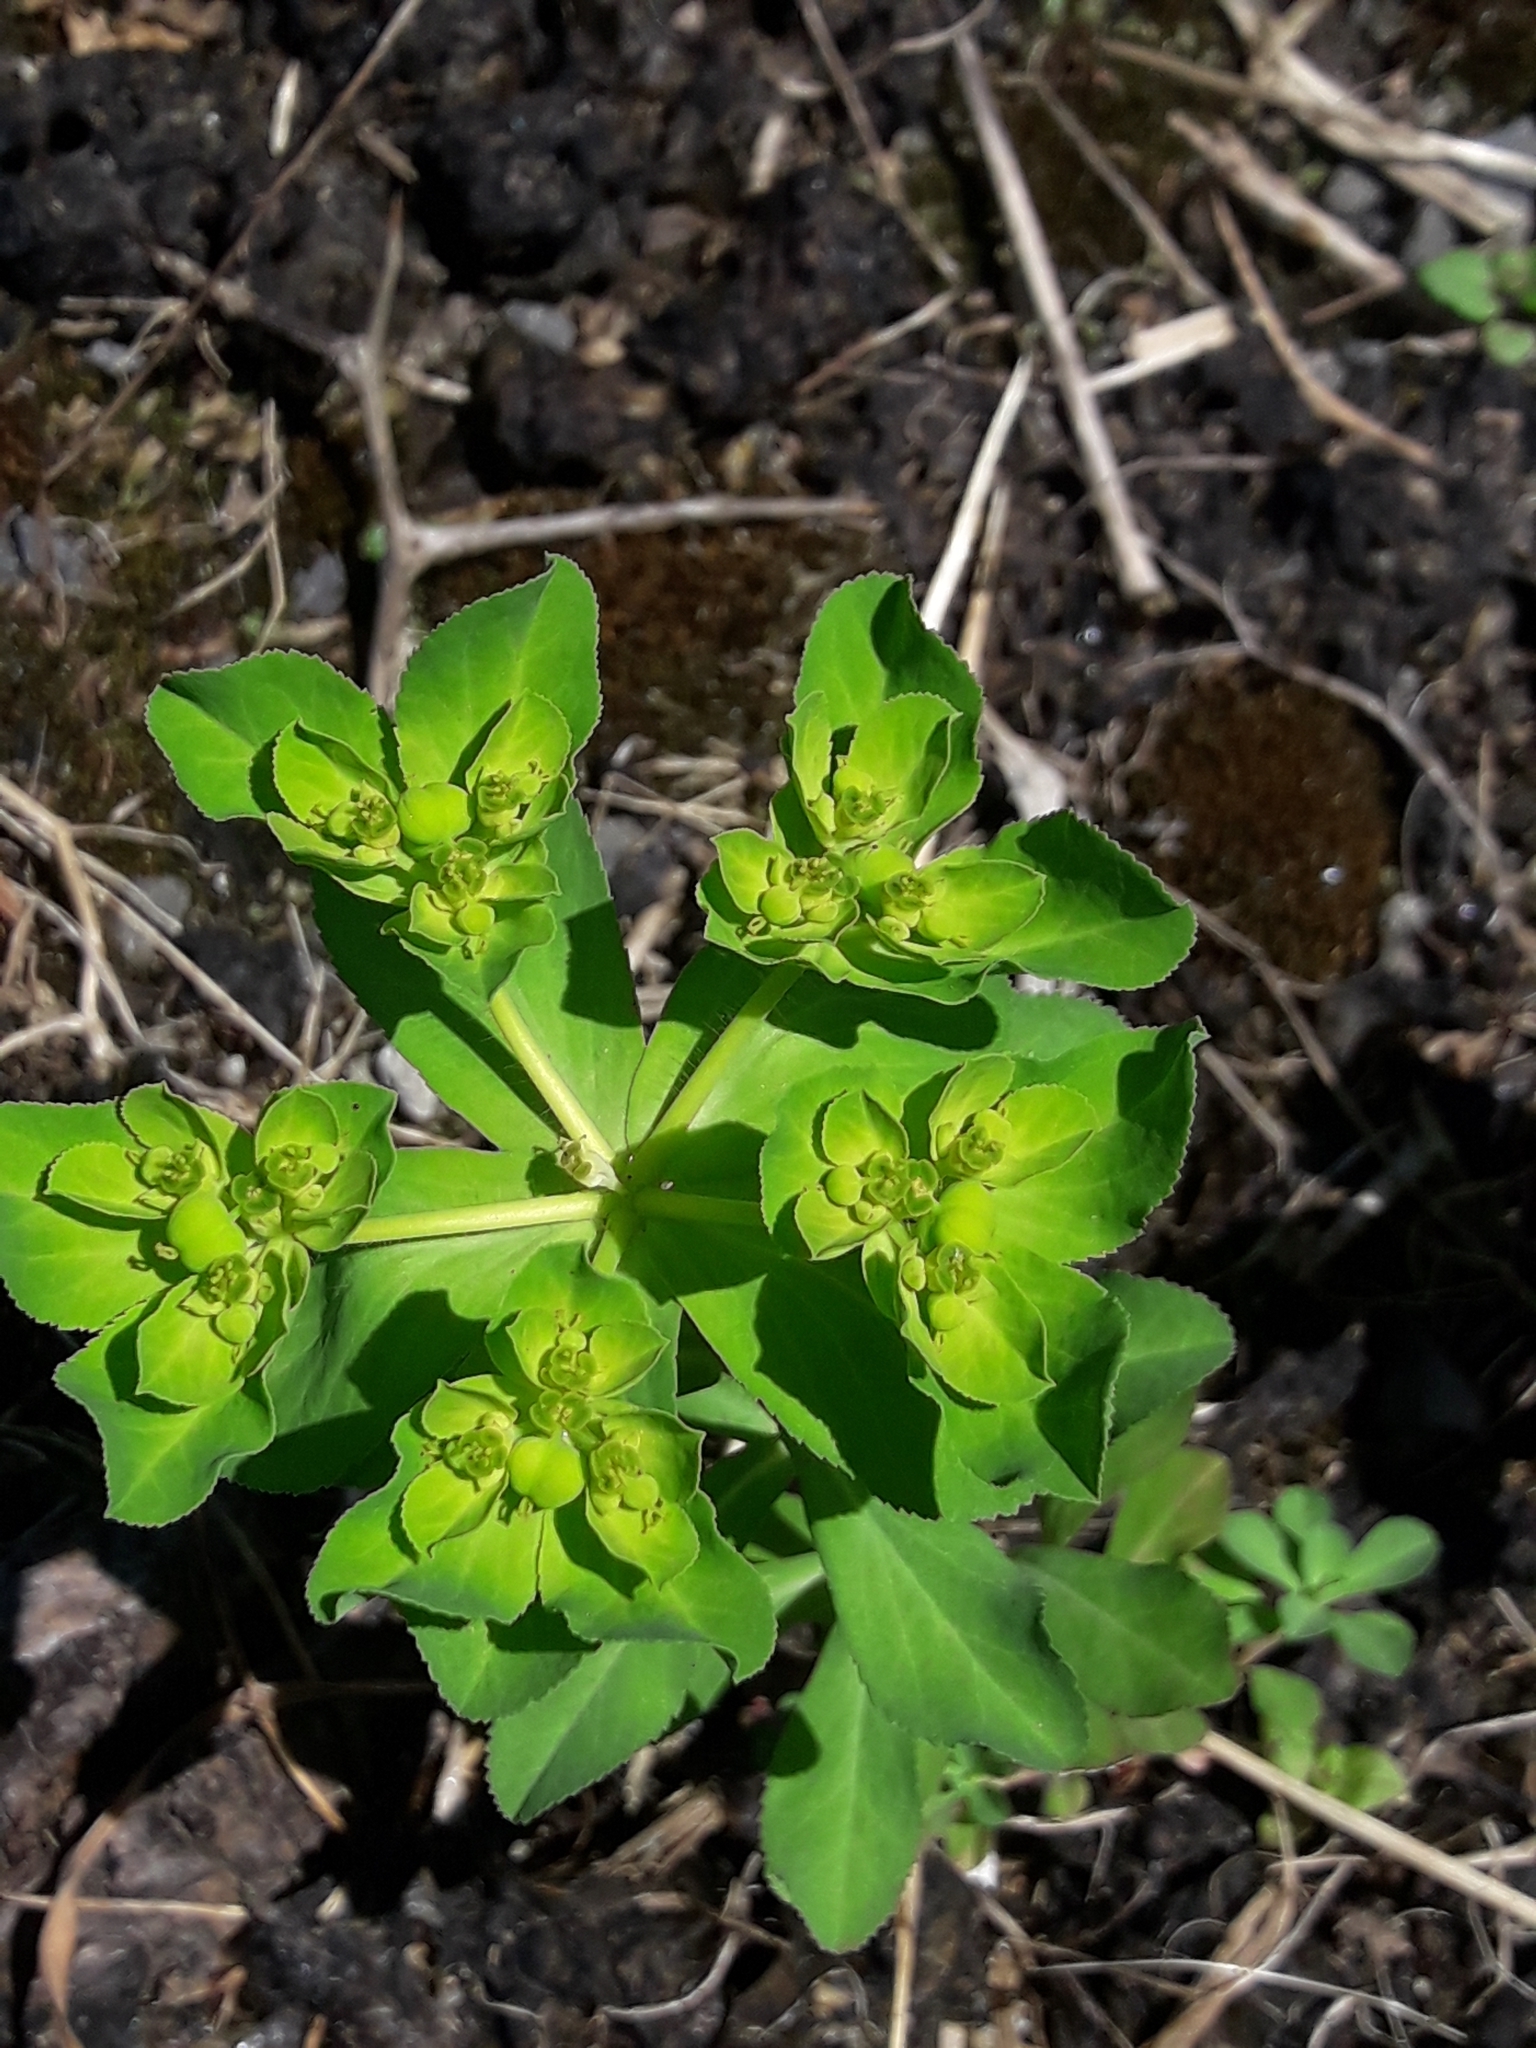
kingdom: Plantae
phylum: Tracheophyta
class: Magnoliopsida
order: Malpighiales
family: Euphorbiaceae
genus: Euphorbia
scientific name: Euphorbia helioscopia
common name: Sun spurge
